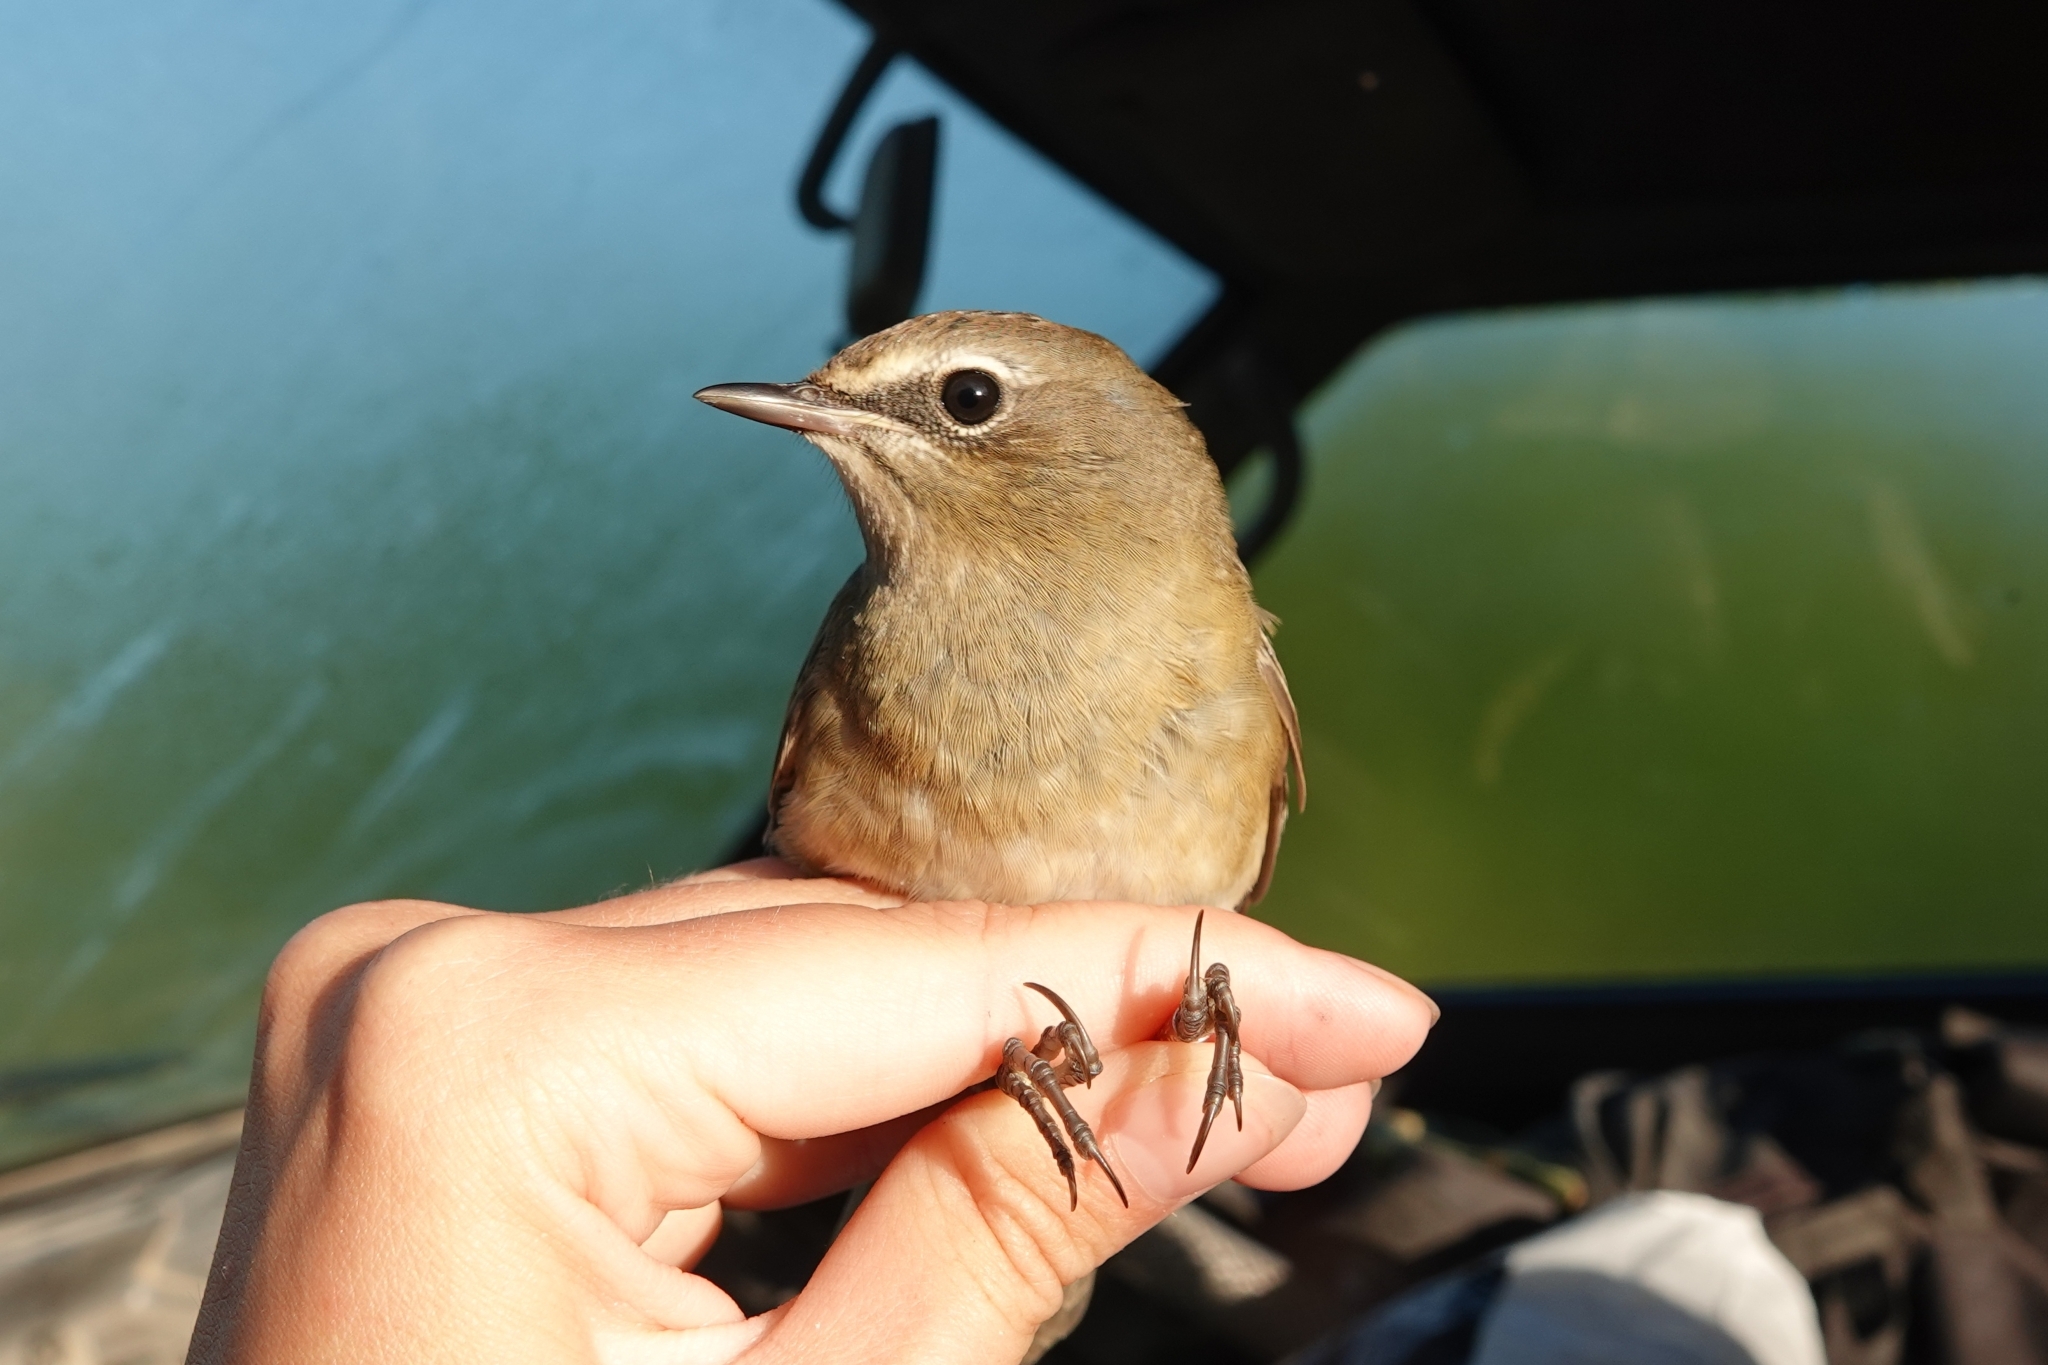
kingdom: Animalia
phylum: Chordata
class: Aves
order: Passeriformes
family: Muscicapidae
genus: Luscinia
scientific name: Luscinia calliope
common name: Siberian rubythroat
